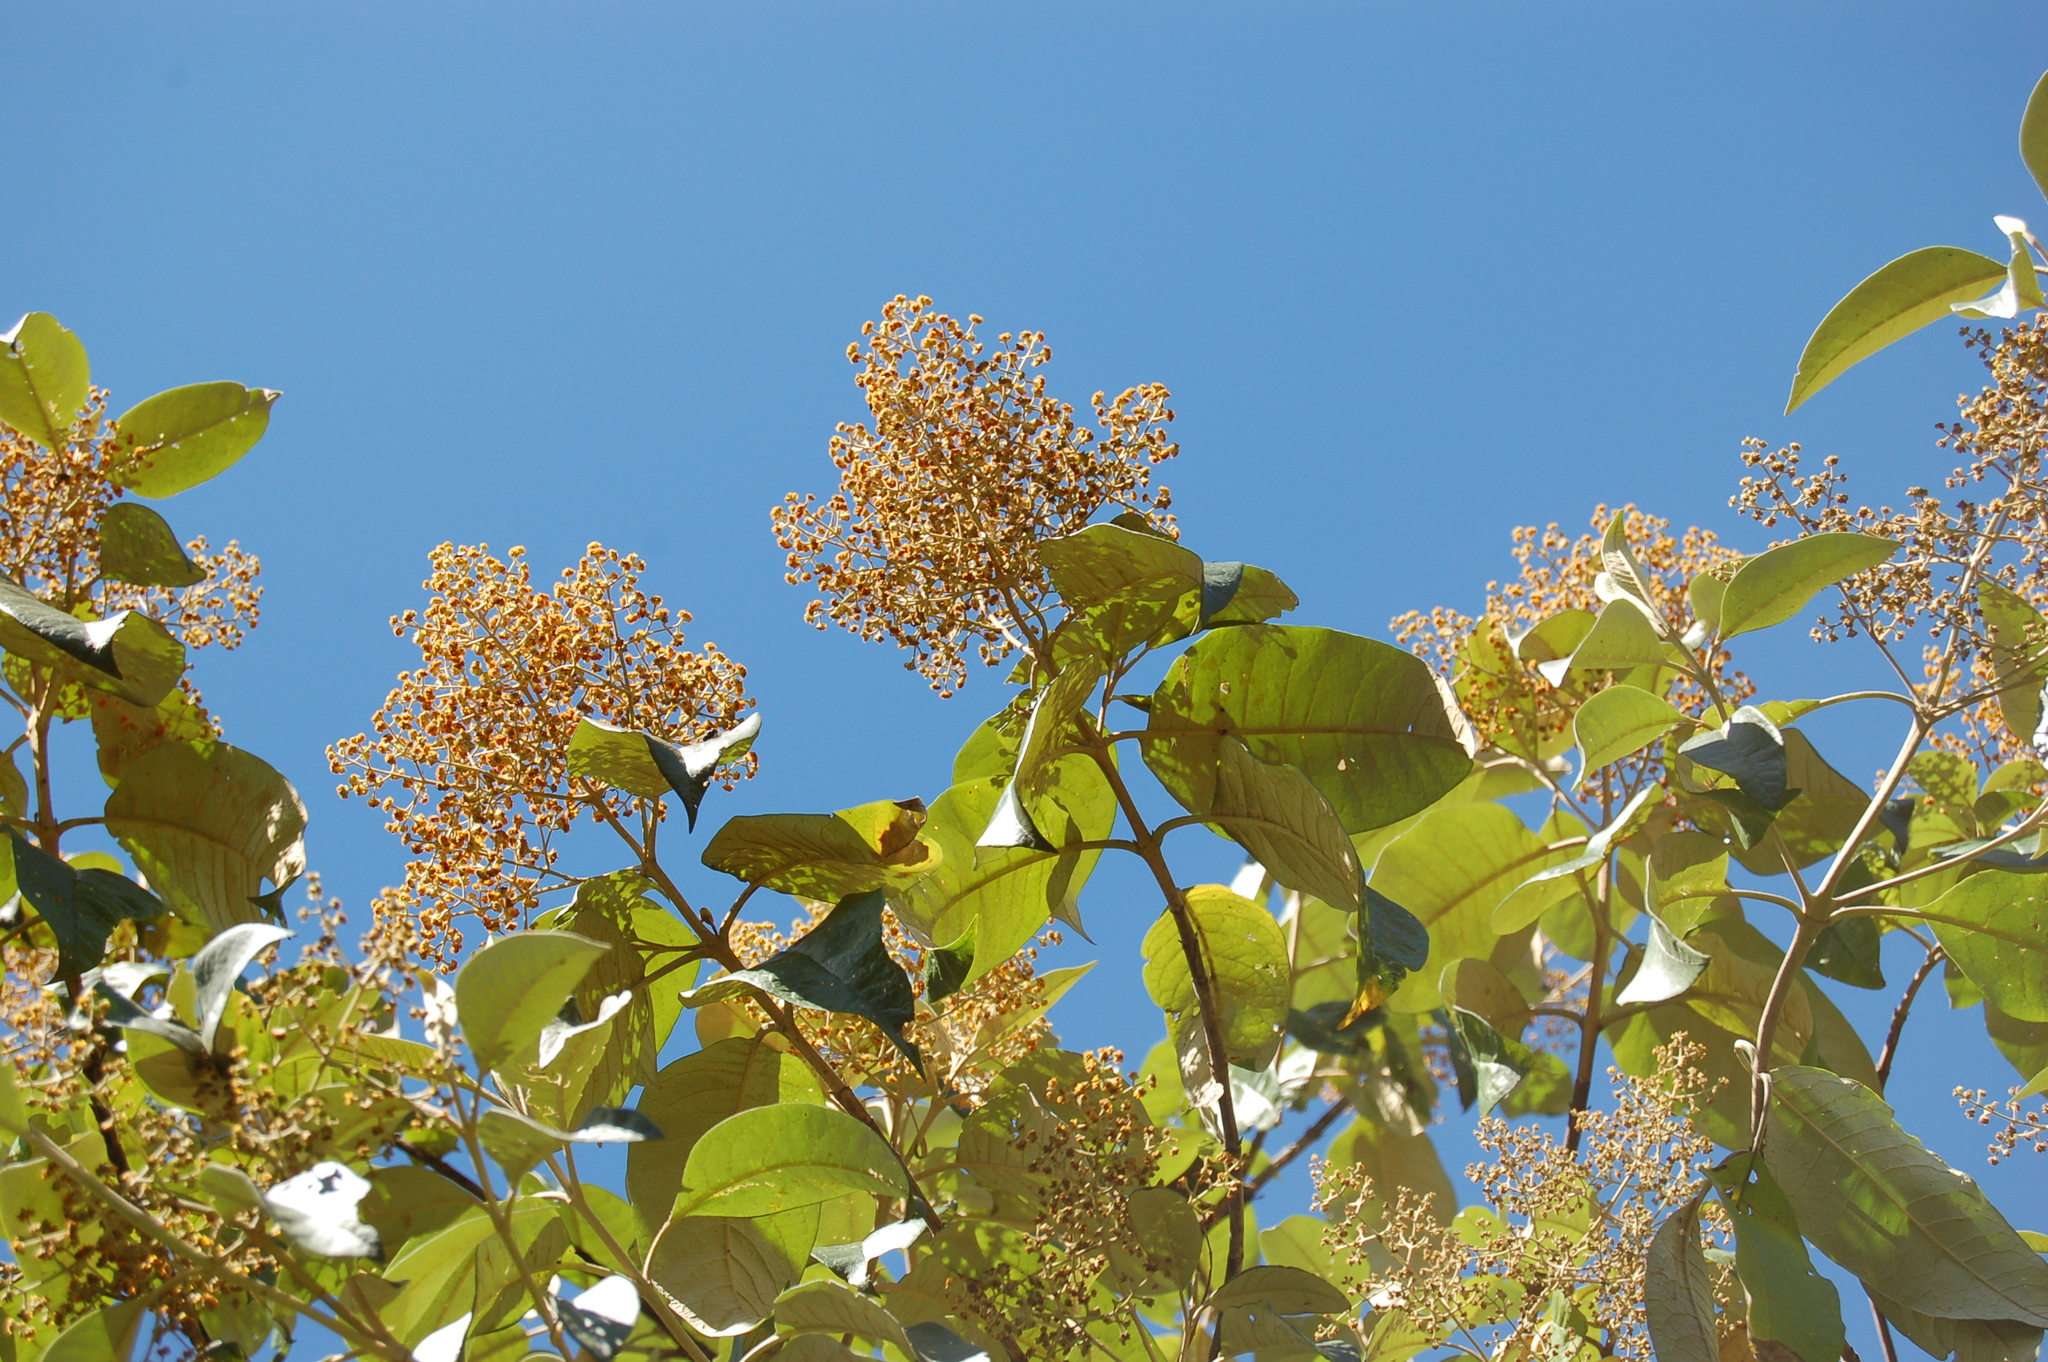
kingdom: Plantae
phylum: Tracheophyta
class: Magnoliopsida
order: Lamiales
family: Scrophulariaceae
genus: Buddleja
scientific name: Buddleja skutchii
